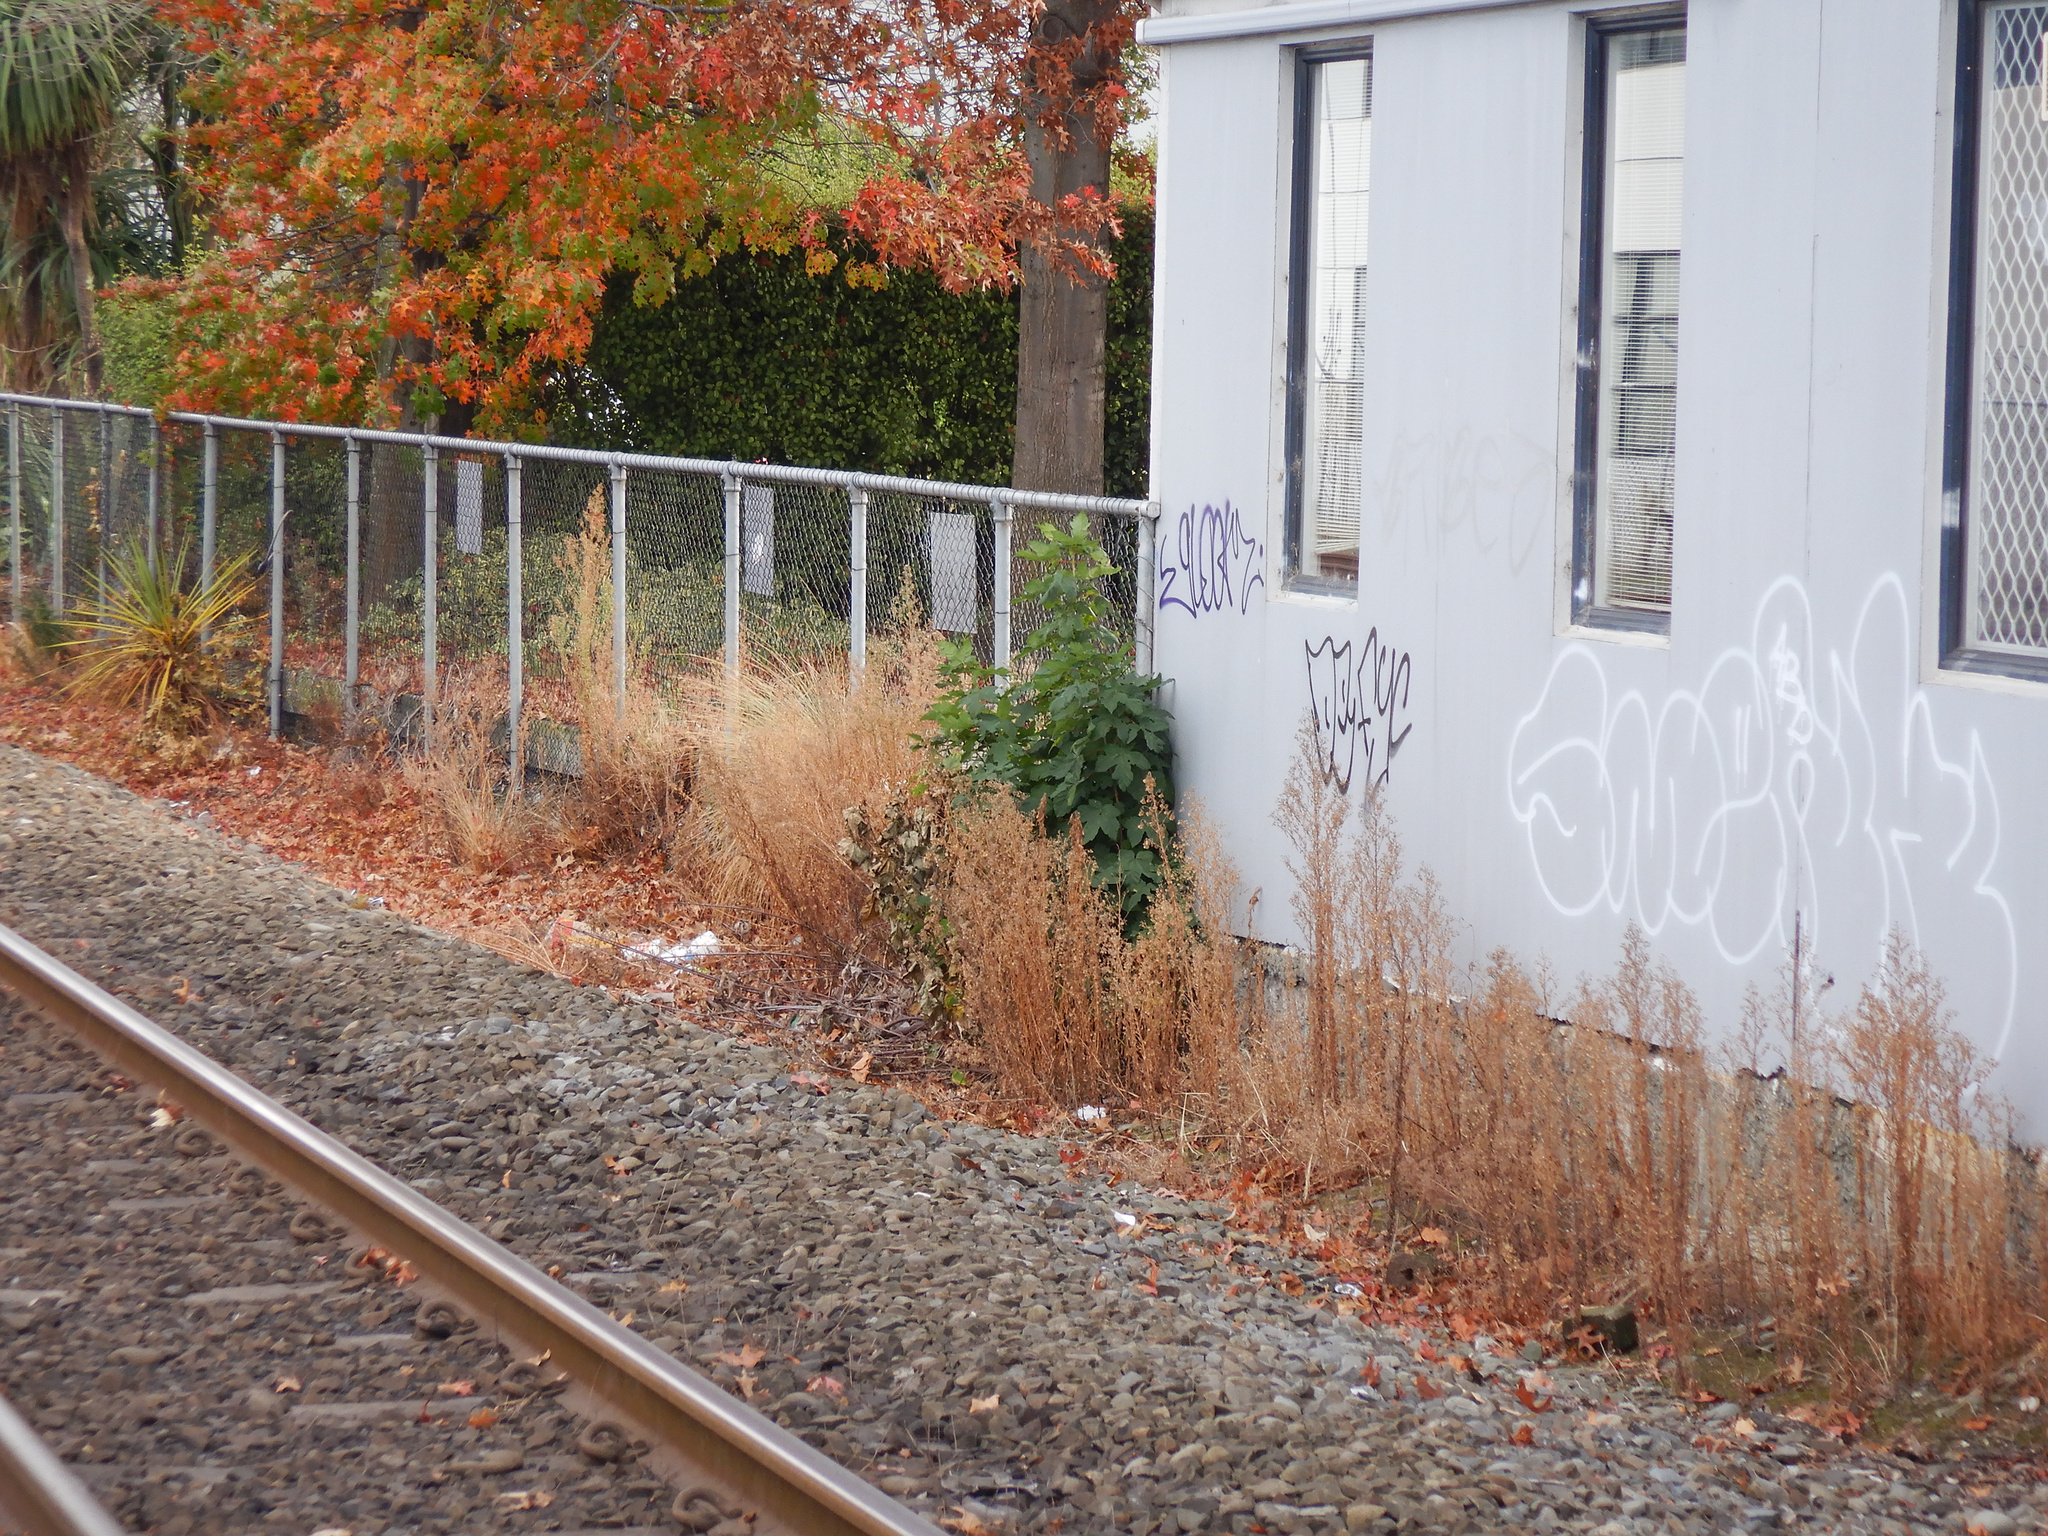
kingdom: Plantae
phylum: Tracheophyta
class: Magnoliopsida
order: Sapindales
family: Sapindaceae
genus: Acer
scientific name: Acer pseudoplatanus
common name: Sycamore
